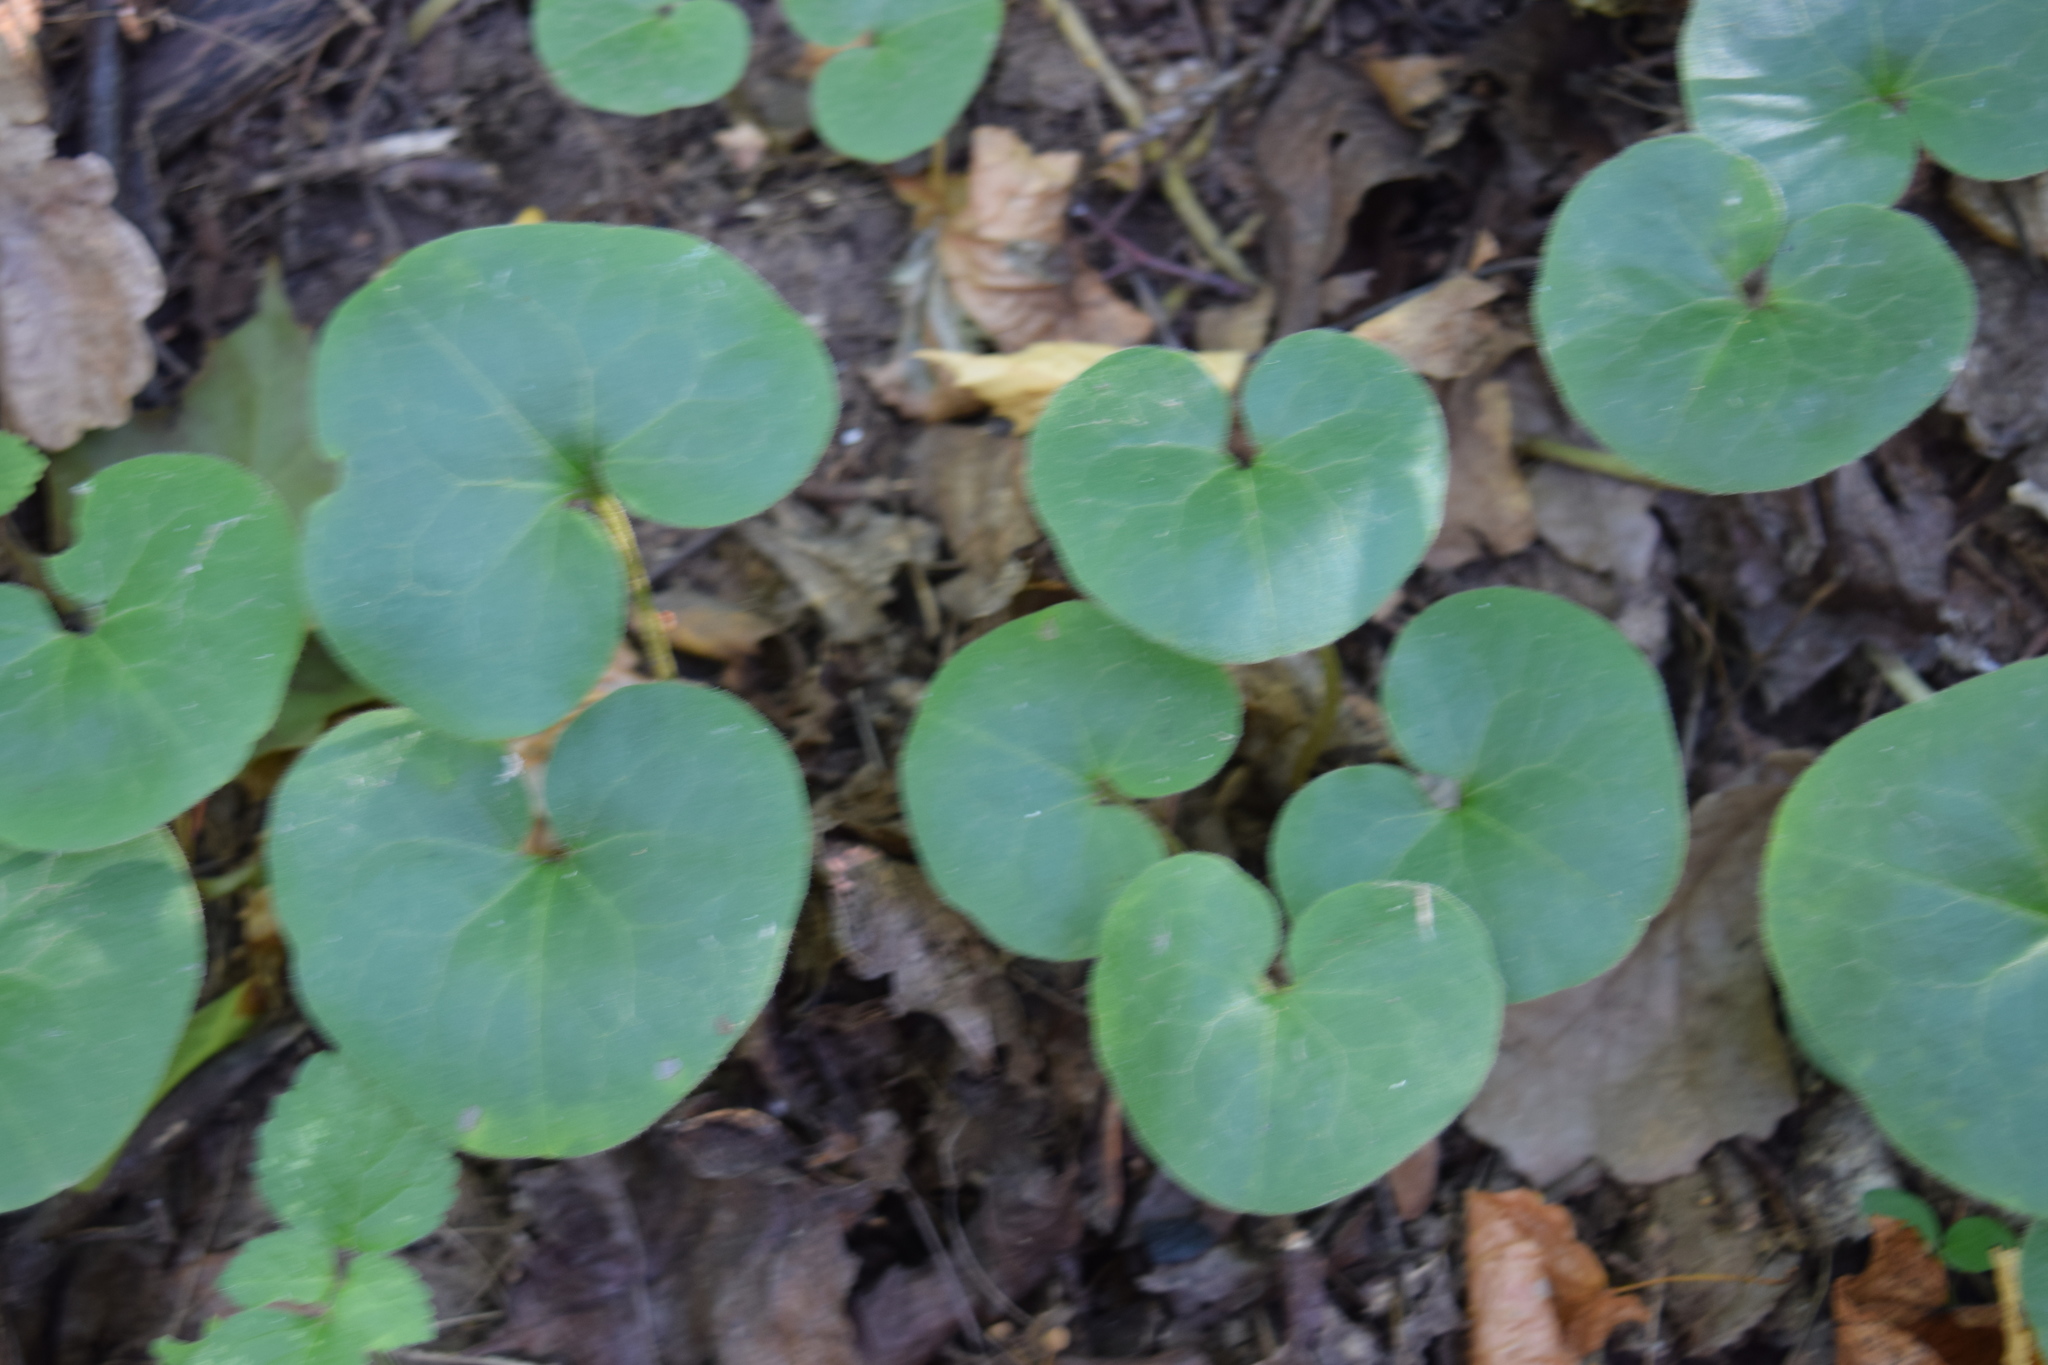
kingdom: Plantae
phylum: Tracheophyta
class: Magnoliopsida
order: Piperales
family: Aristolochiaceae
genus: Asarum
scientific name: Asarum europaeum
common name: Asarabacca
